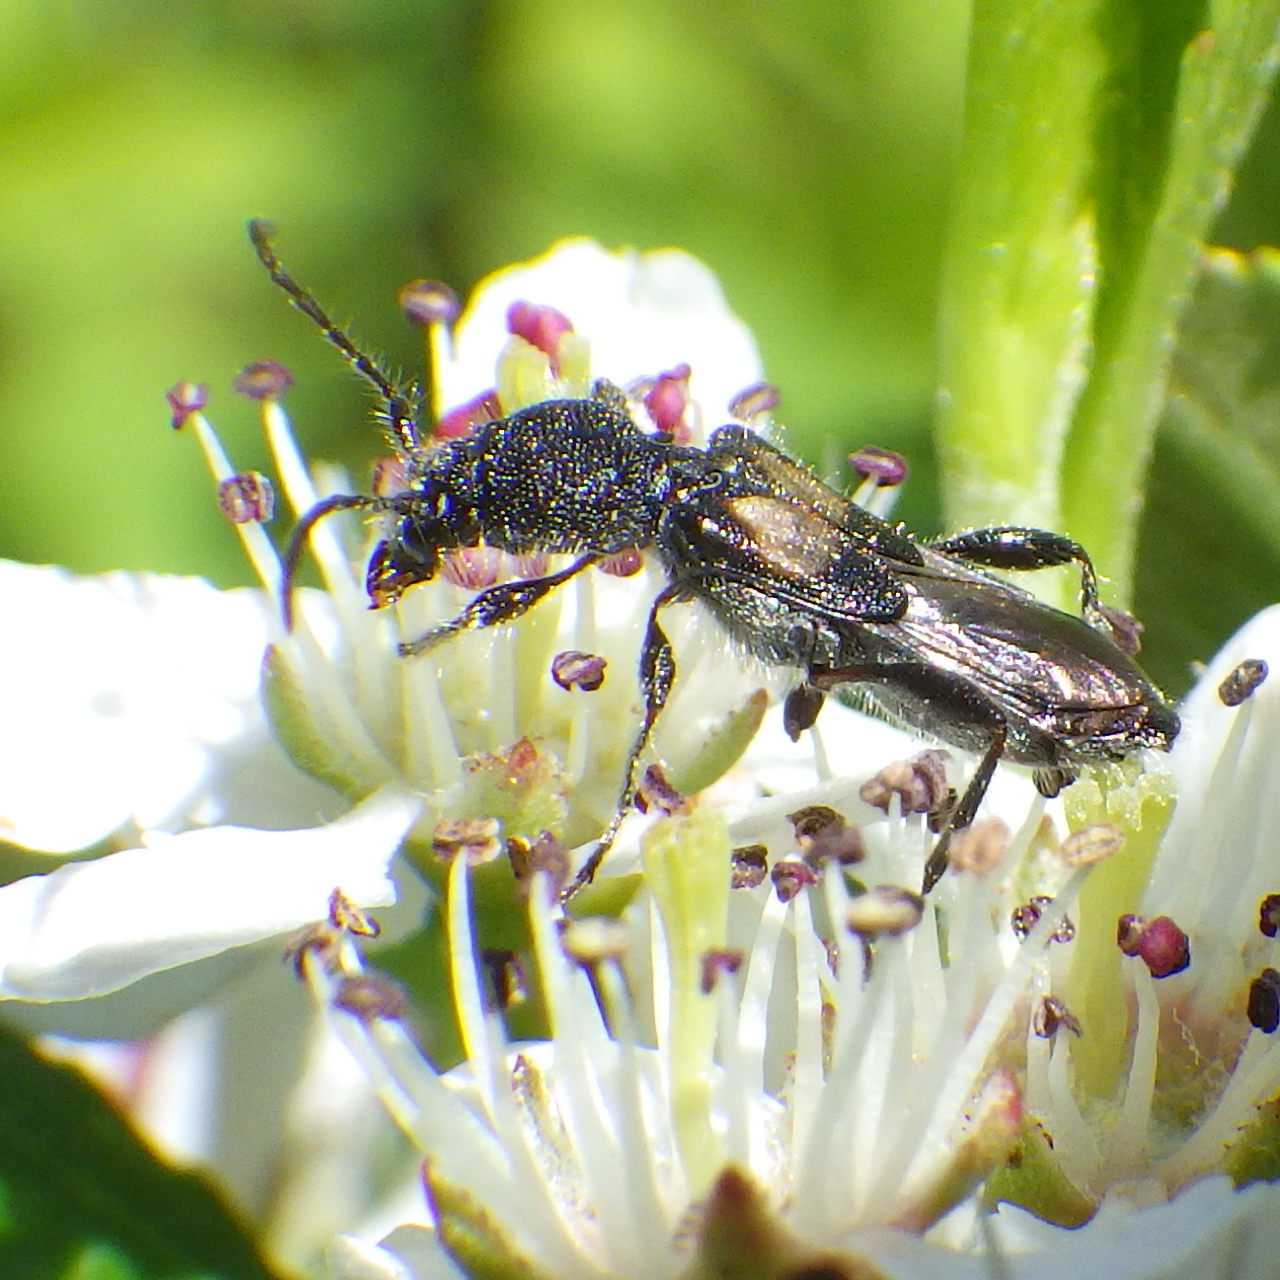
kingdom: Animalia
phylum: Arthropoda
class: Insecta
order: Coleoptera
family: Cerambycidae
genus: Molorchus
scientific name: Molorchus bimaculatus
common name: Bimaculate longhorn beetle
